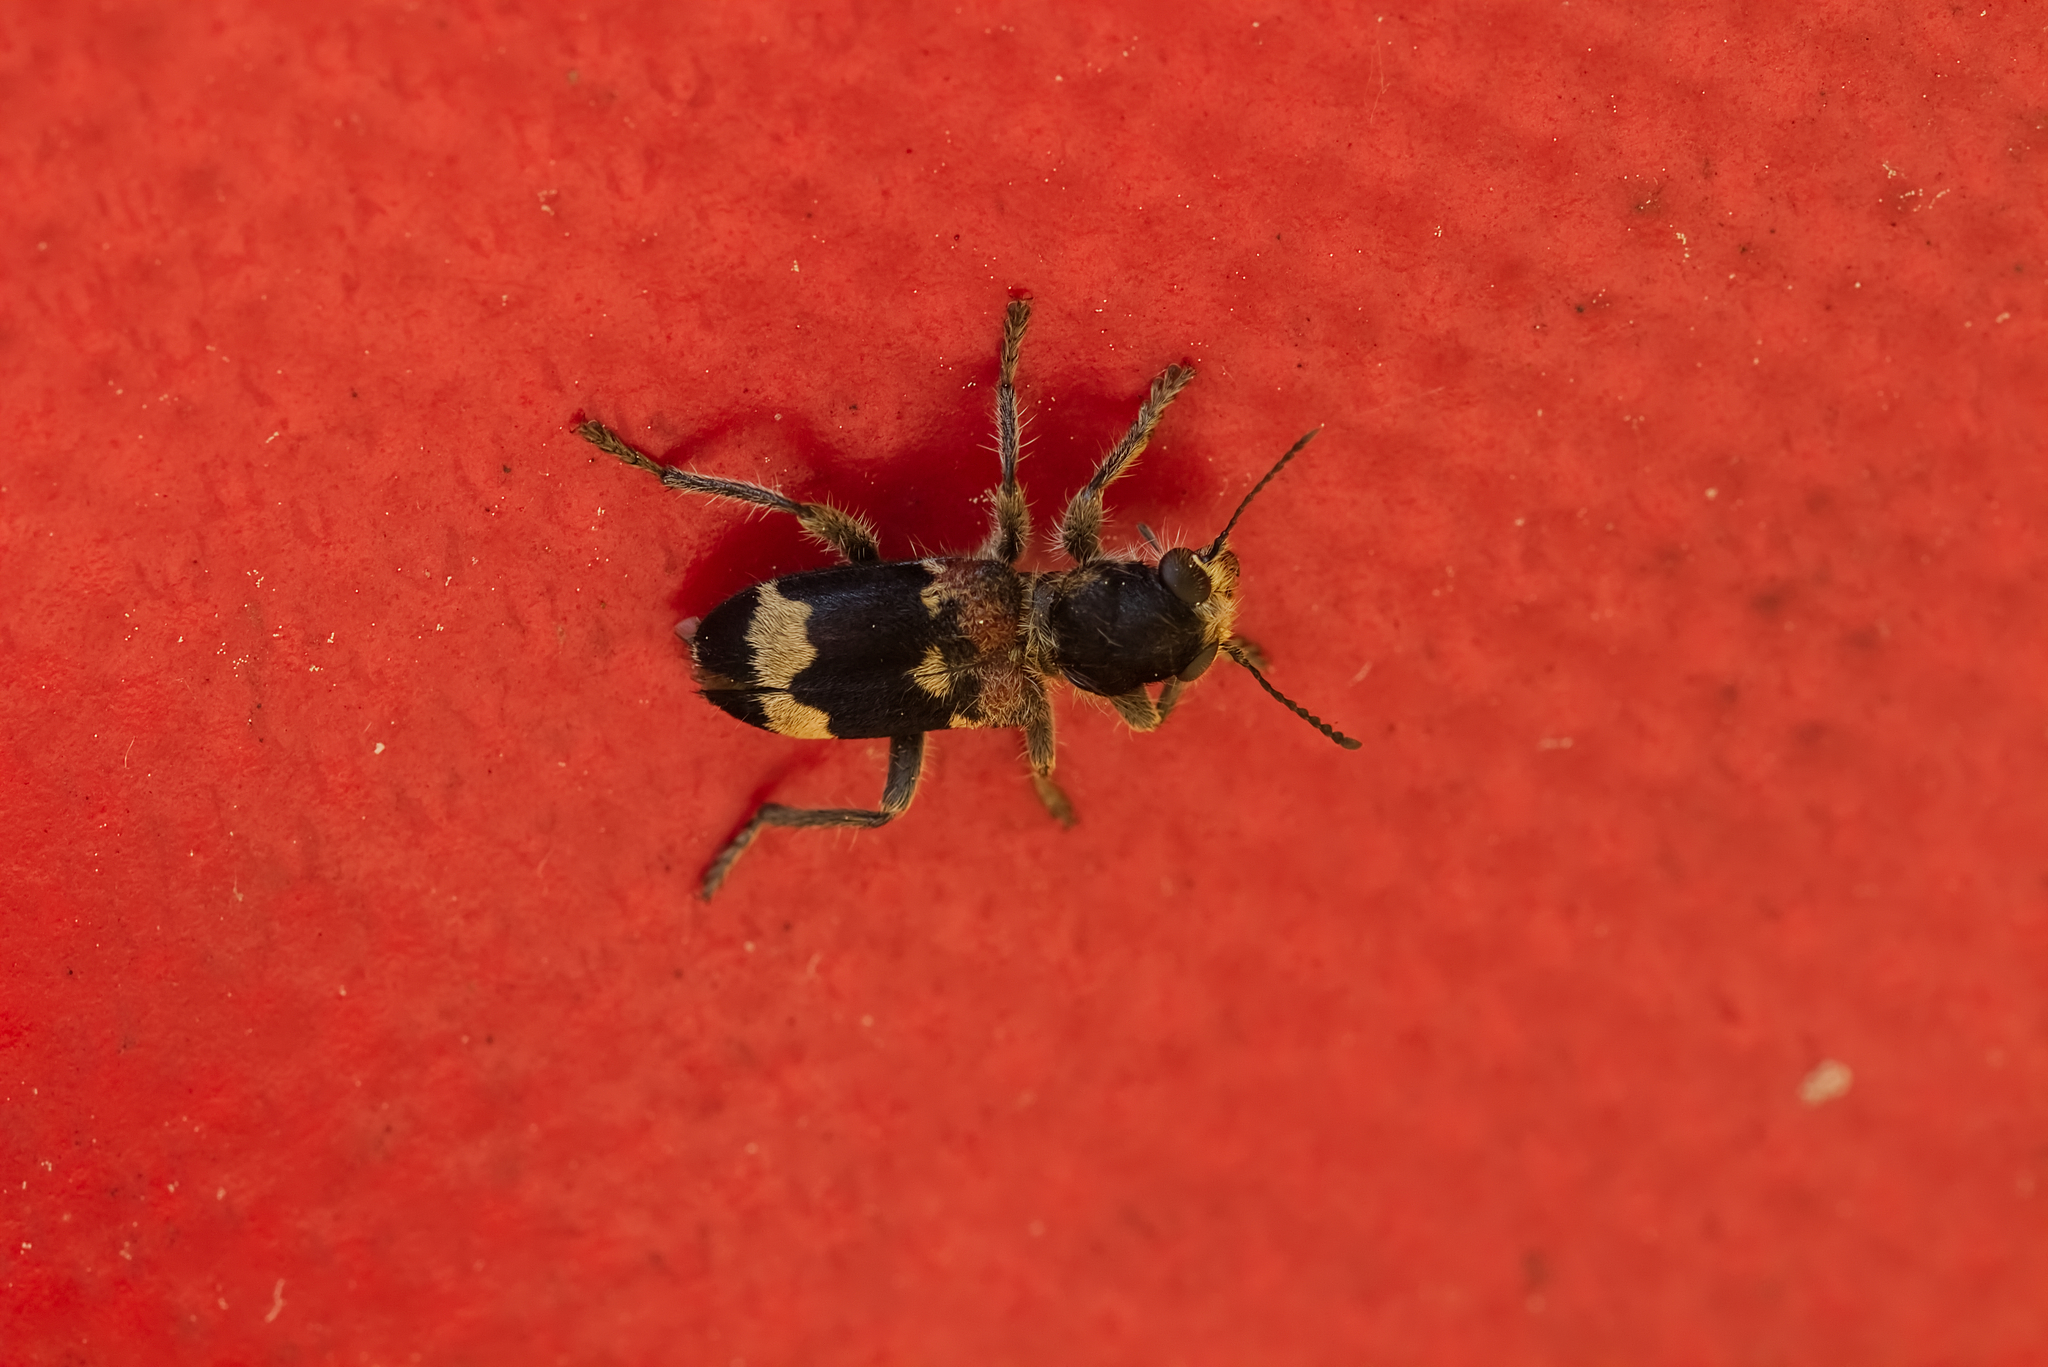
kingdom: Animalia
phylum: Arthropoda
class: Insecta
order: Coleoptera
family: Cleridae
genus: Clerus
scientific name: Clerus mutillarius
